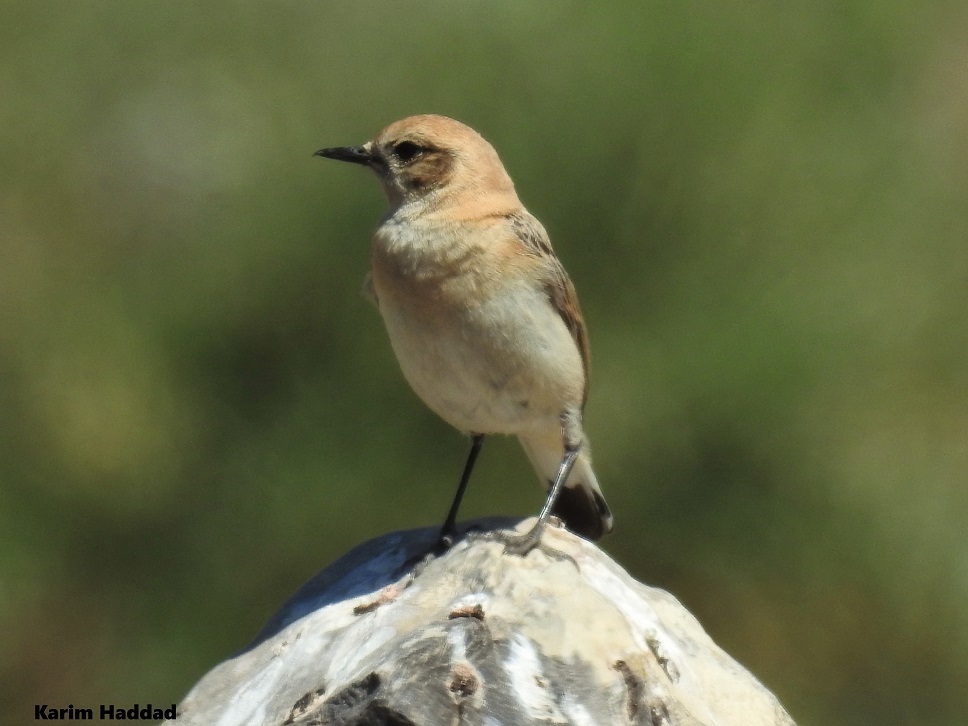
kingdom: Animalia
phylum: Chordata
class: Aves
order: Passeriformes
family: Muscicapidae
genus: Oenanthe
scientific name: Oenanthe hispanica
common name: Black-eared wheatear
